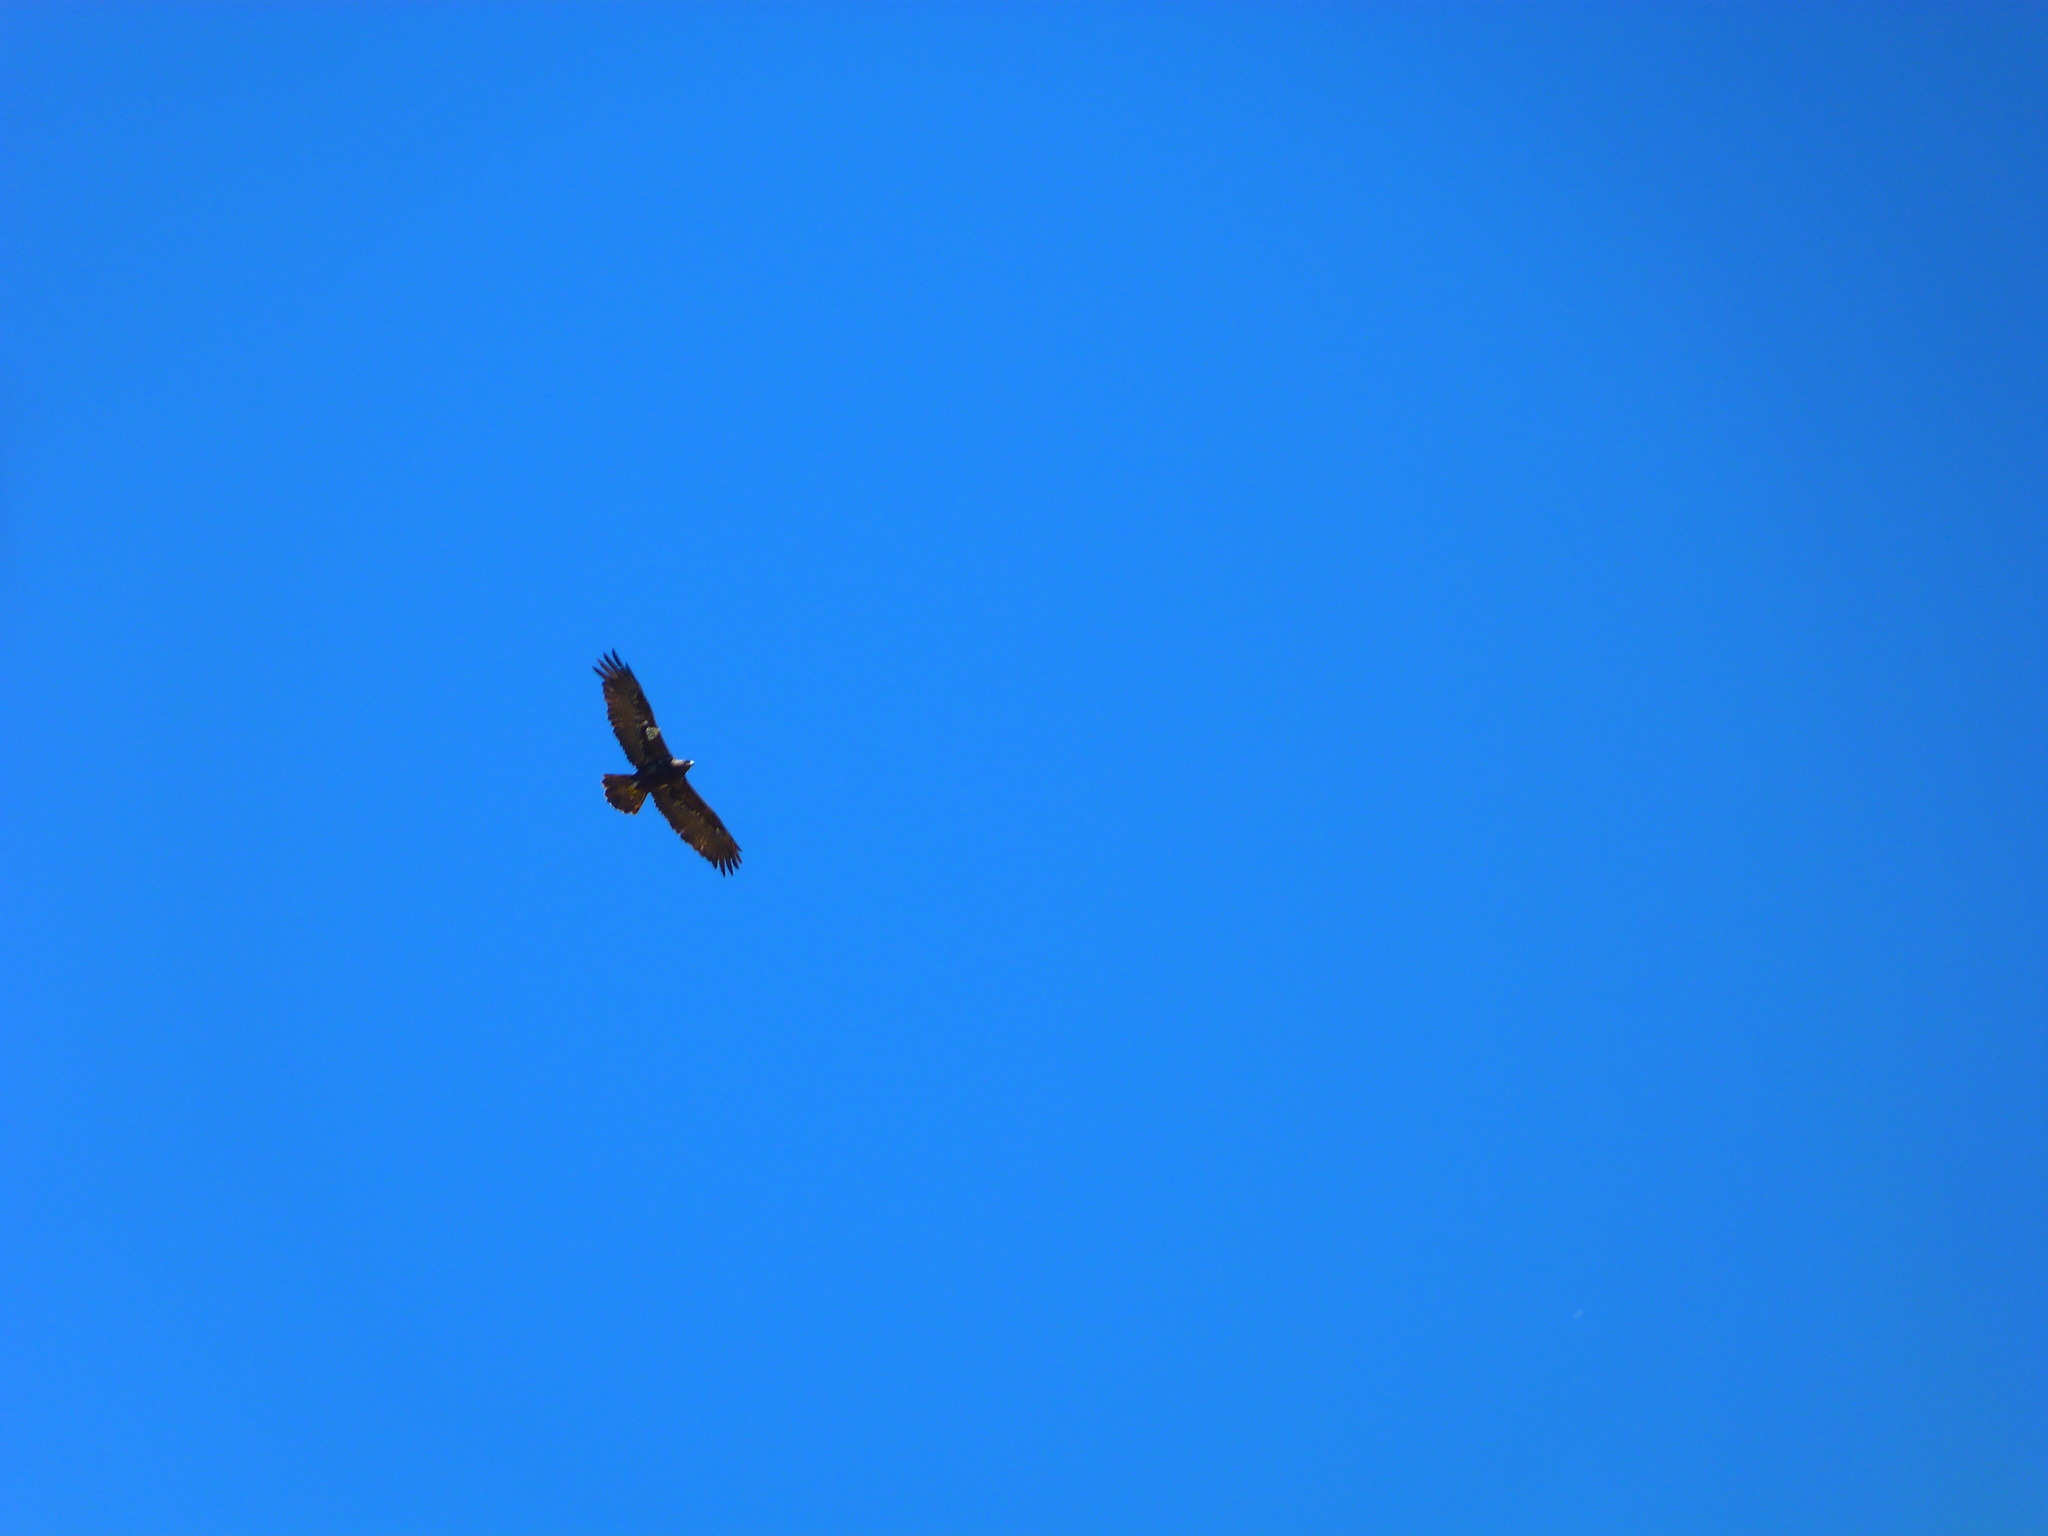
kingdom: Animalia
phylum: Chordata
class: Aves
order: Accipitriformes
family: Accipitridae
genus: Aquila
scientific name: Aquila chrysaetos
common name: Golden eagle
